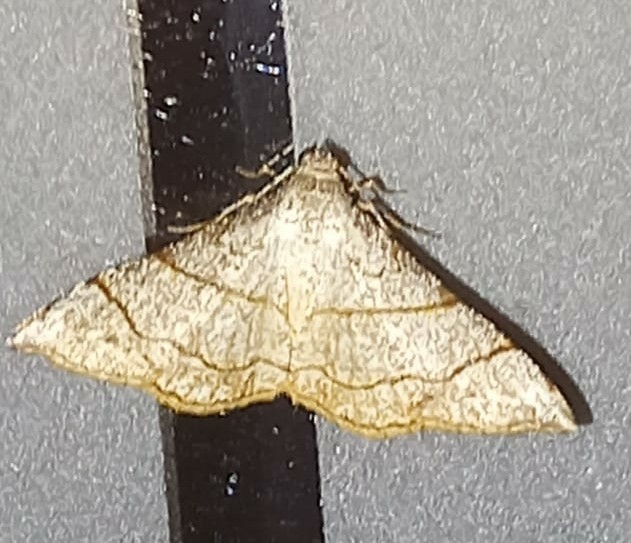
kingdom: Animalia
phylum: Arthropoda
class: Insecta
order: Lepidoptera
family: Geometridae
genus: Semiothisa
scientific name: Semiothisa divergentata
